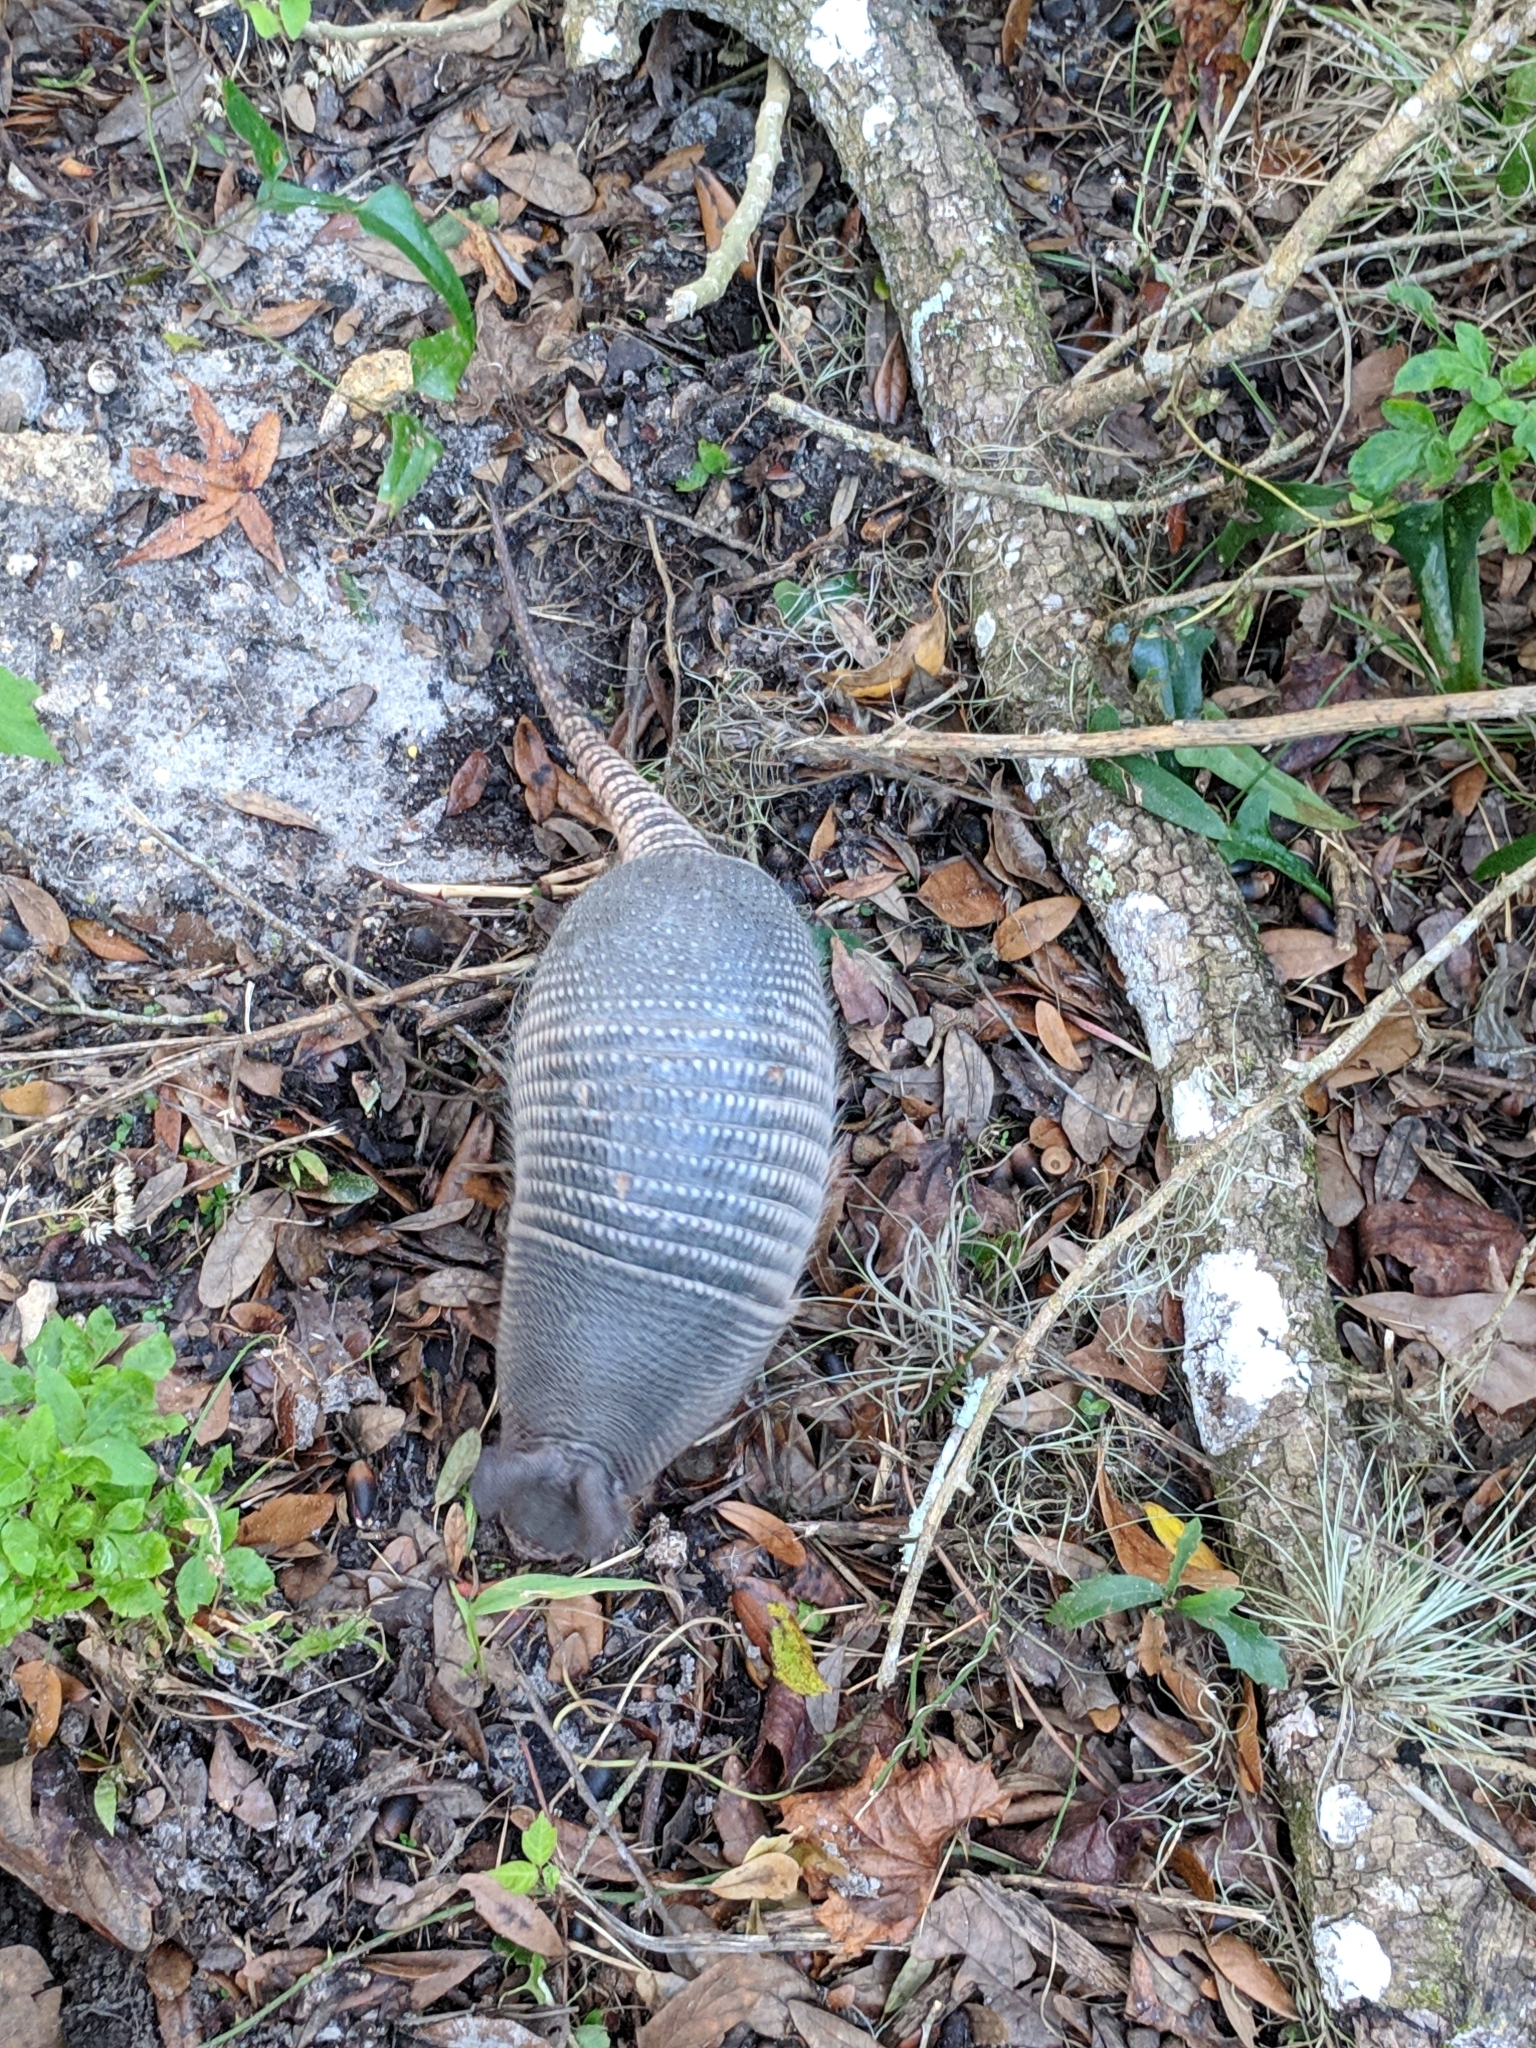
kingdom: Animalia
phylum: Chordata
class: Mammalia
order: Cingulata
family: Dasypodidae
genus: Dasypus
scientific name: Dasypus novemcinctus
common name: Nine-banded armadillo
